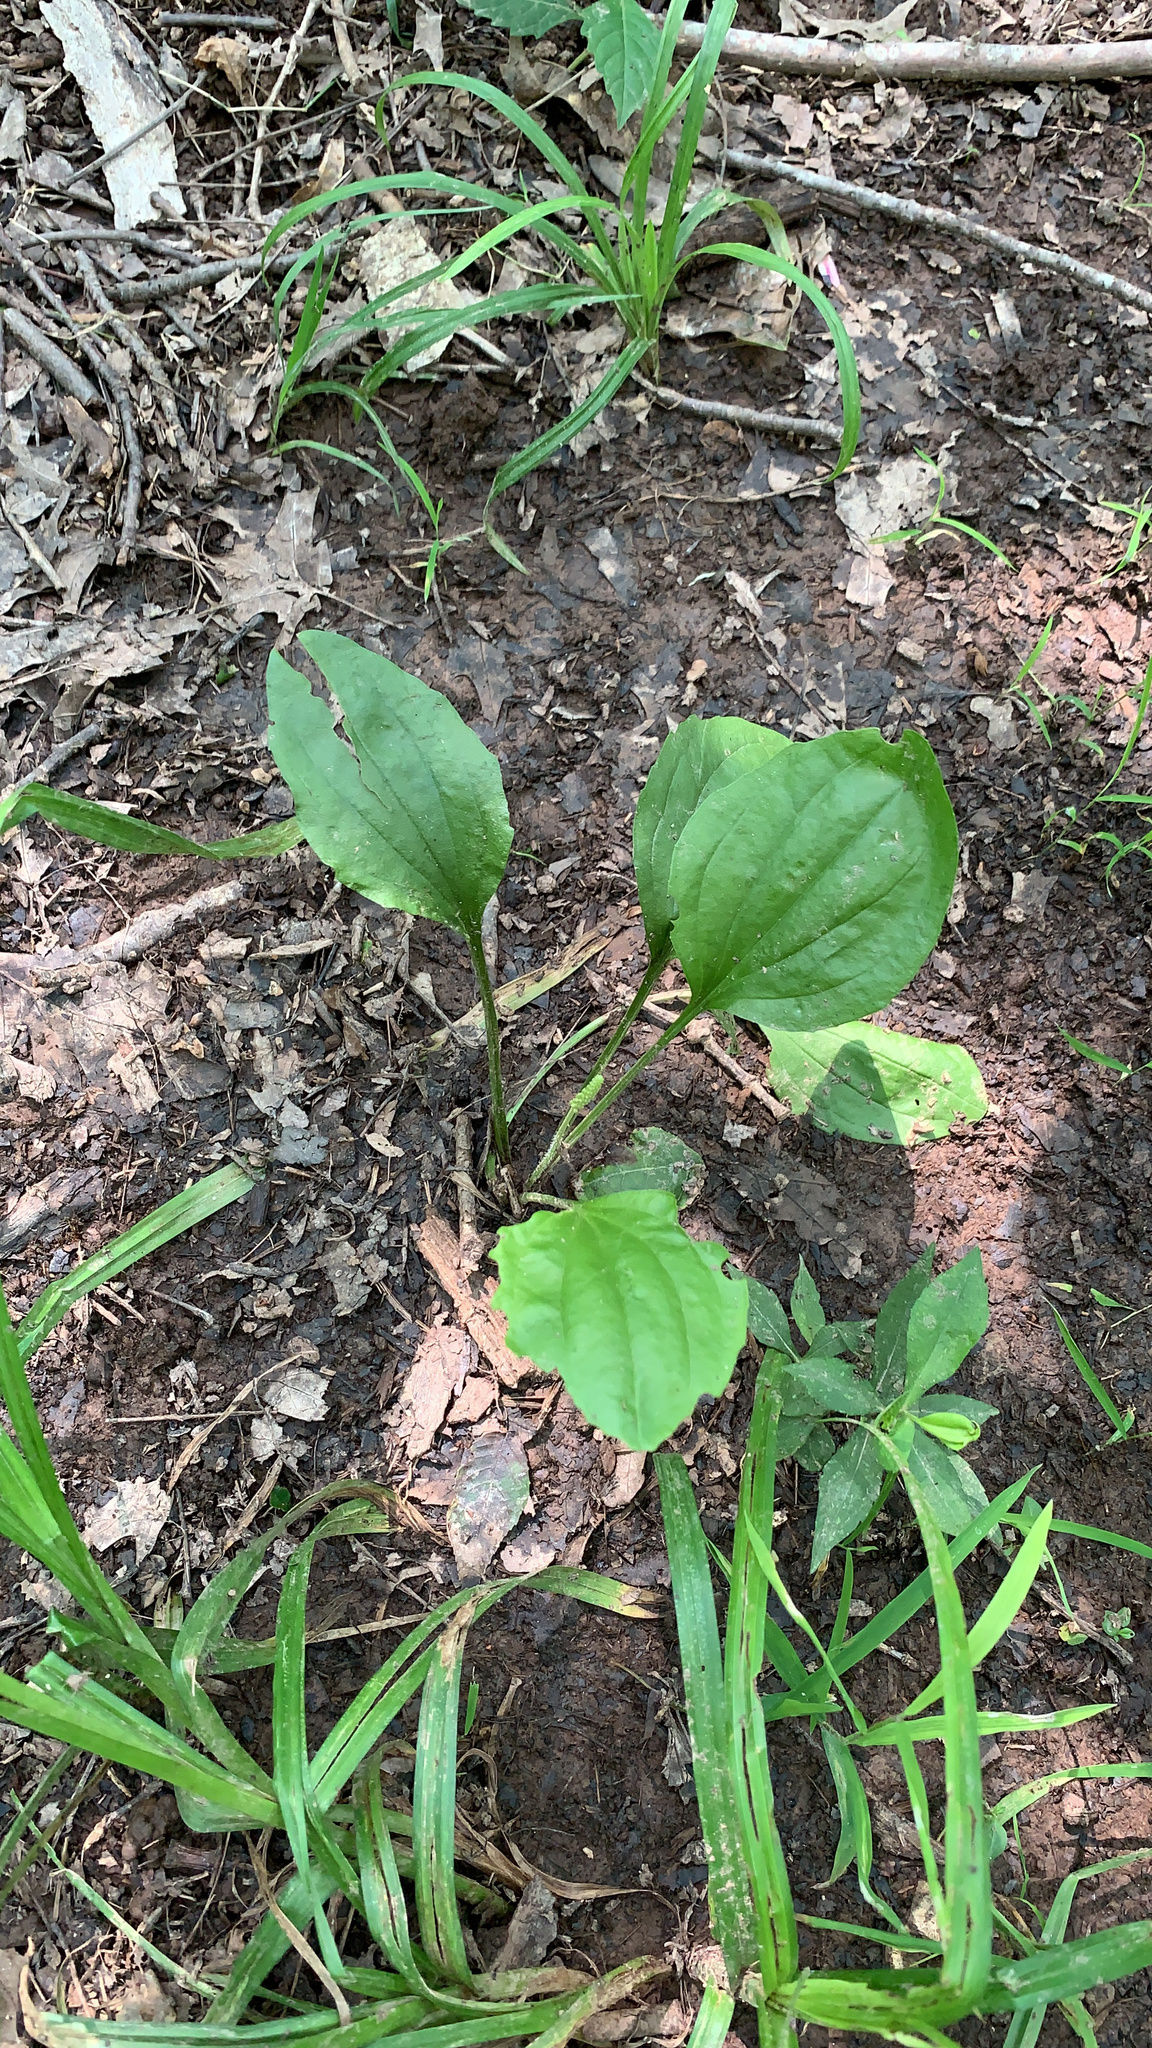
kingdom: Plantae
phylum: Tracheophyta
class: Magnoliopsida
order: Lamiales
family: Plantaginaceae
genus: Plantago
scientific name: Plantago rugelii
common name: American plantain
